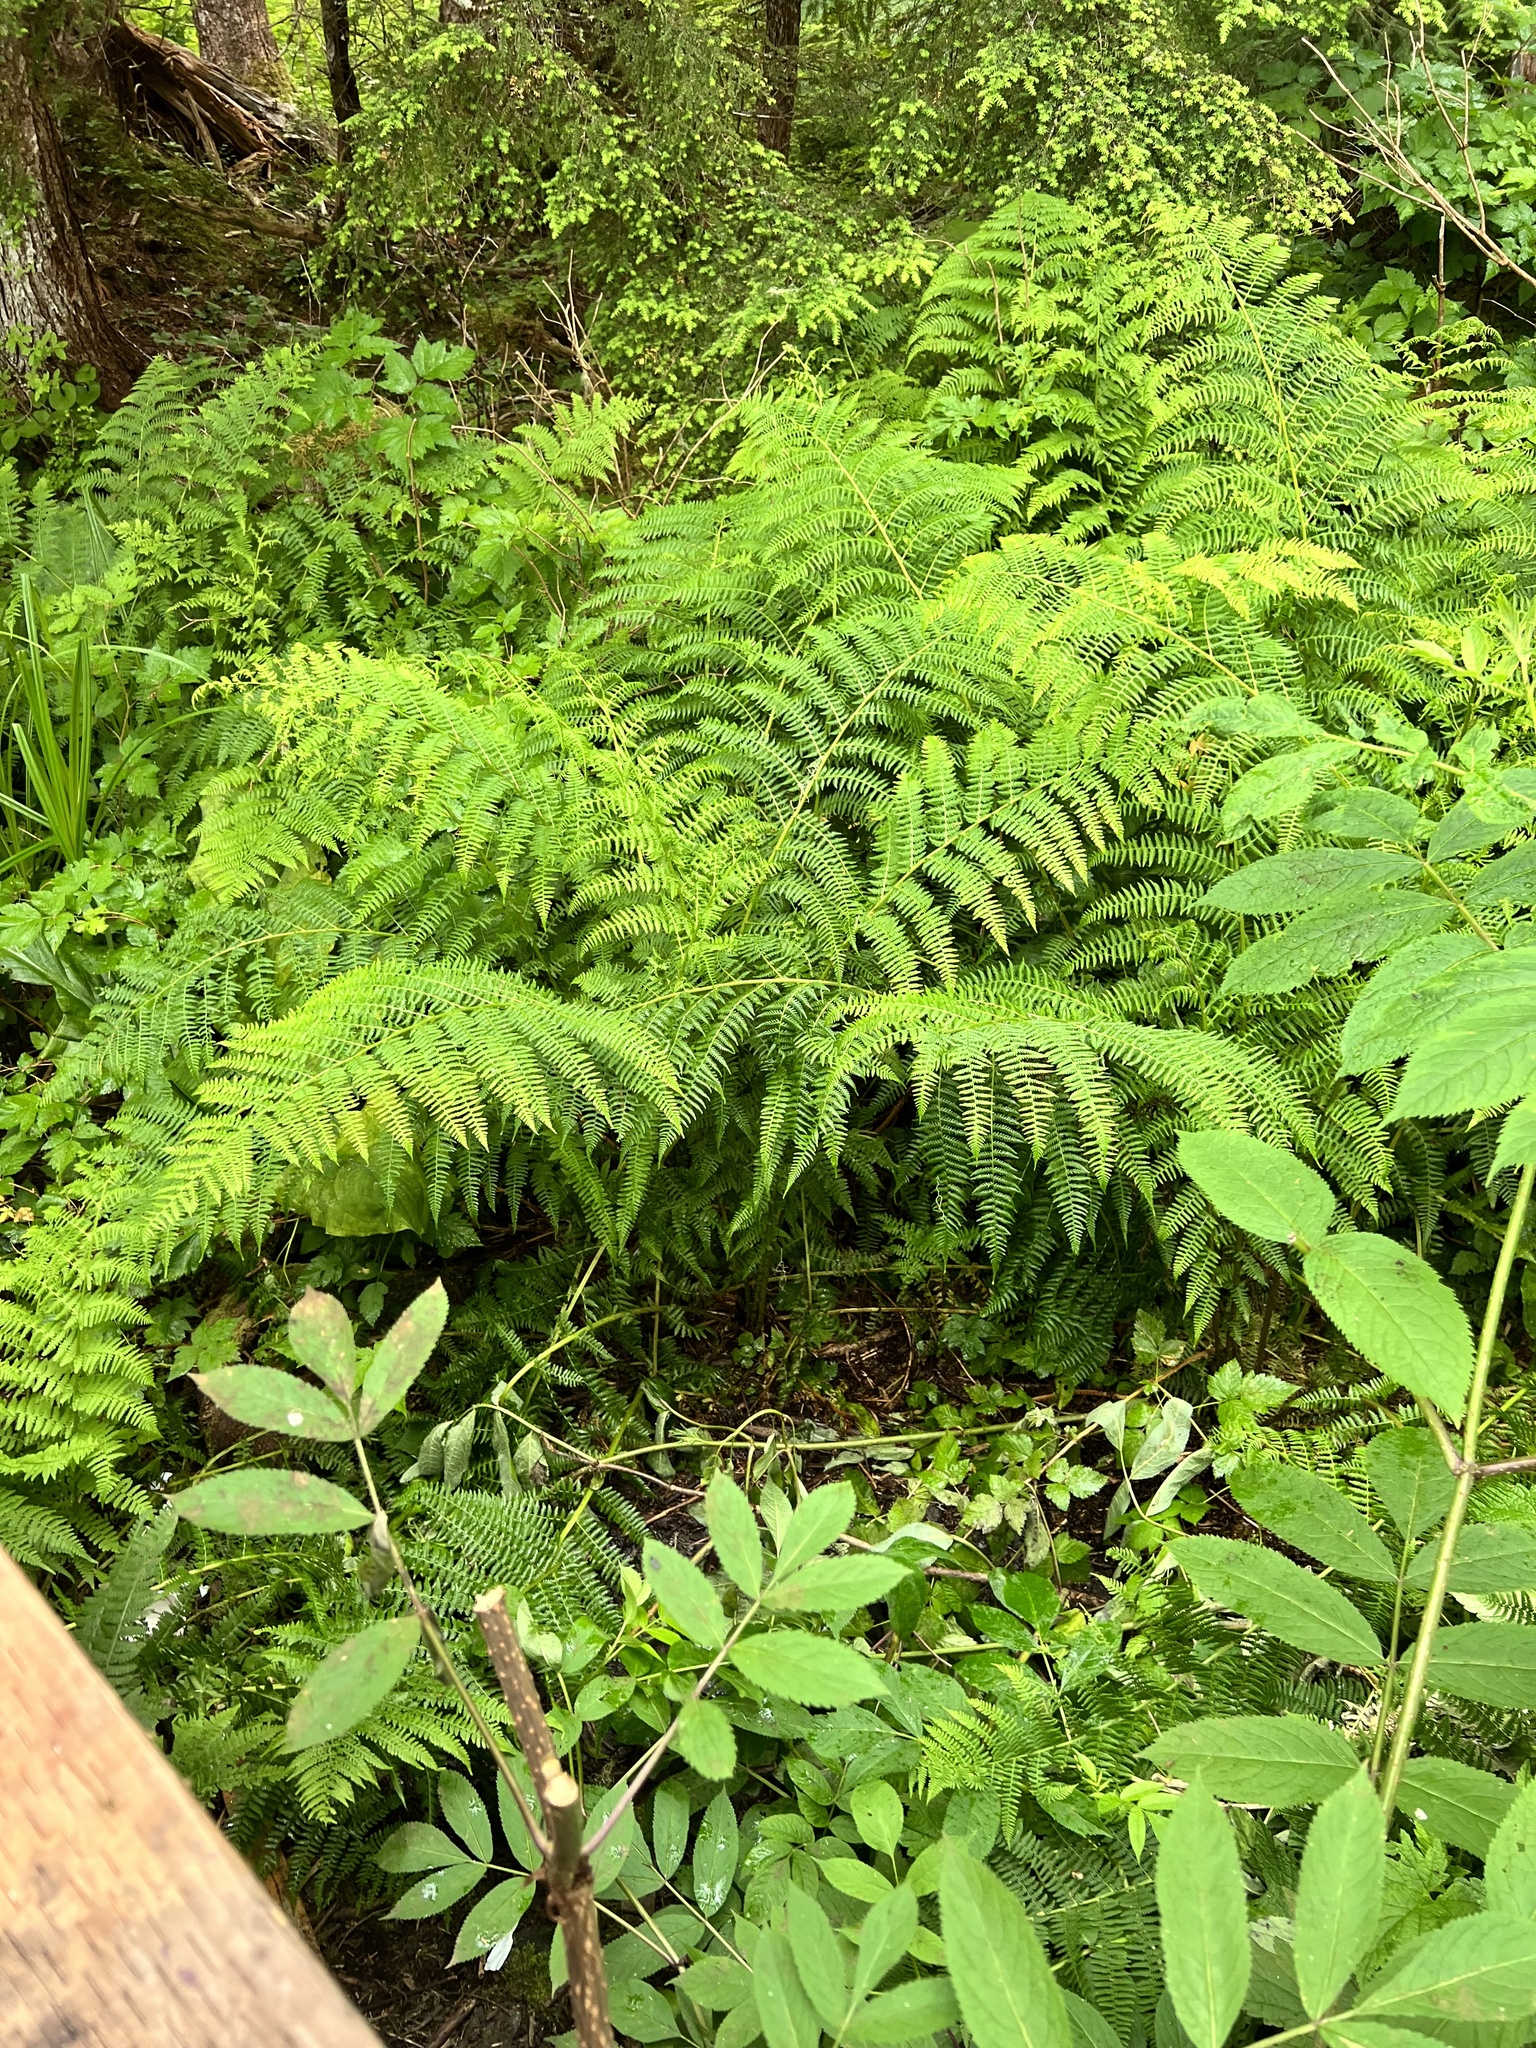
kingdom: Plantae
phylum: Tracheophyta
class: Polypodiopsida
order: Polypodiales
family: Athyriaceae
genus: Athyrium
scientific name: Athyrium filix-femina
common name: Lady fern
